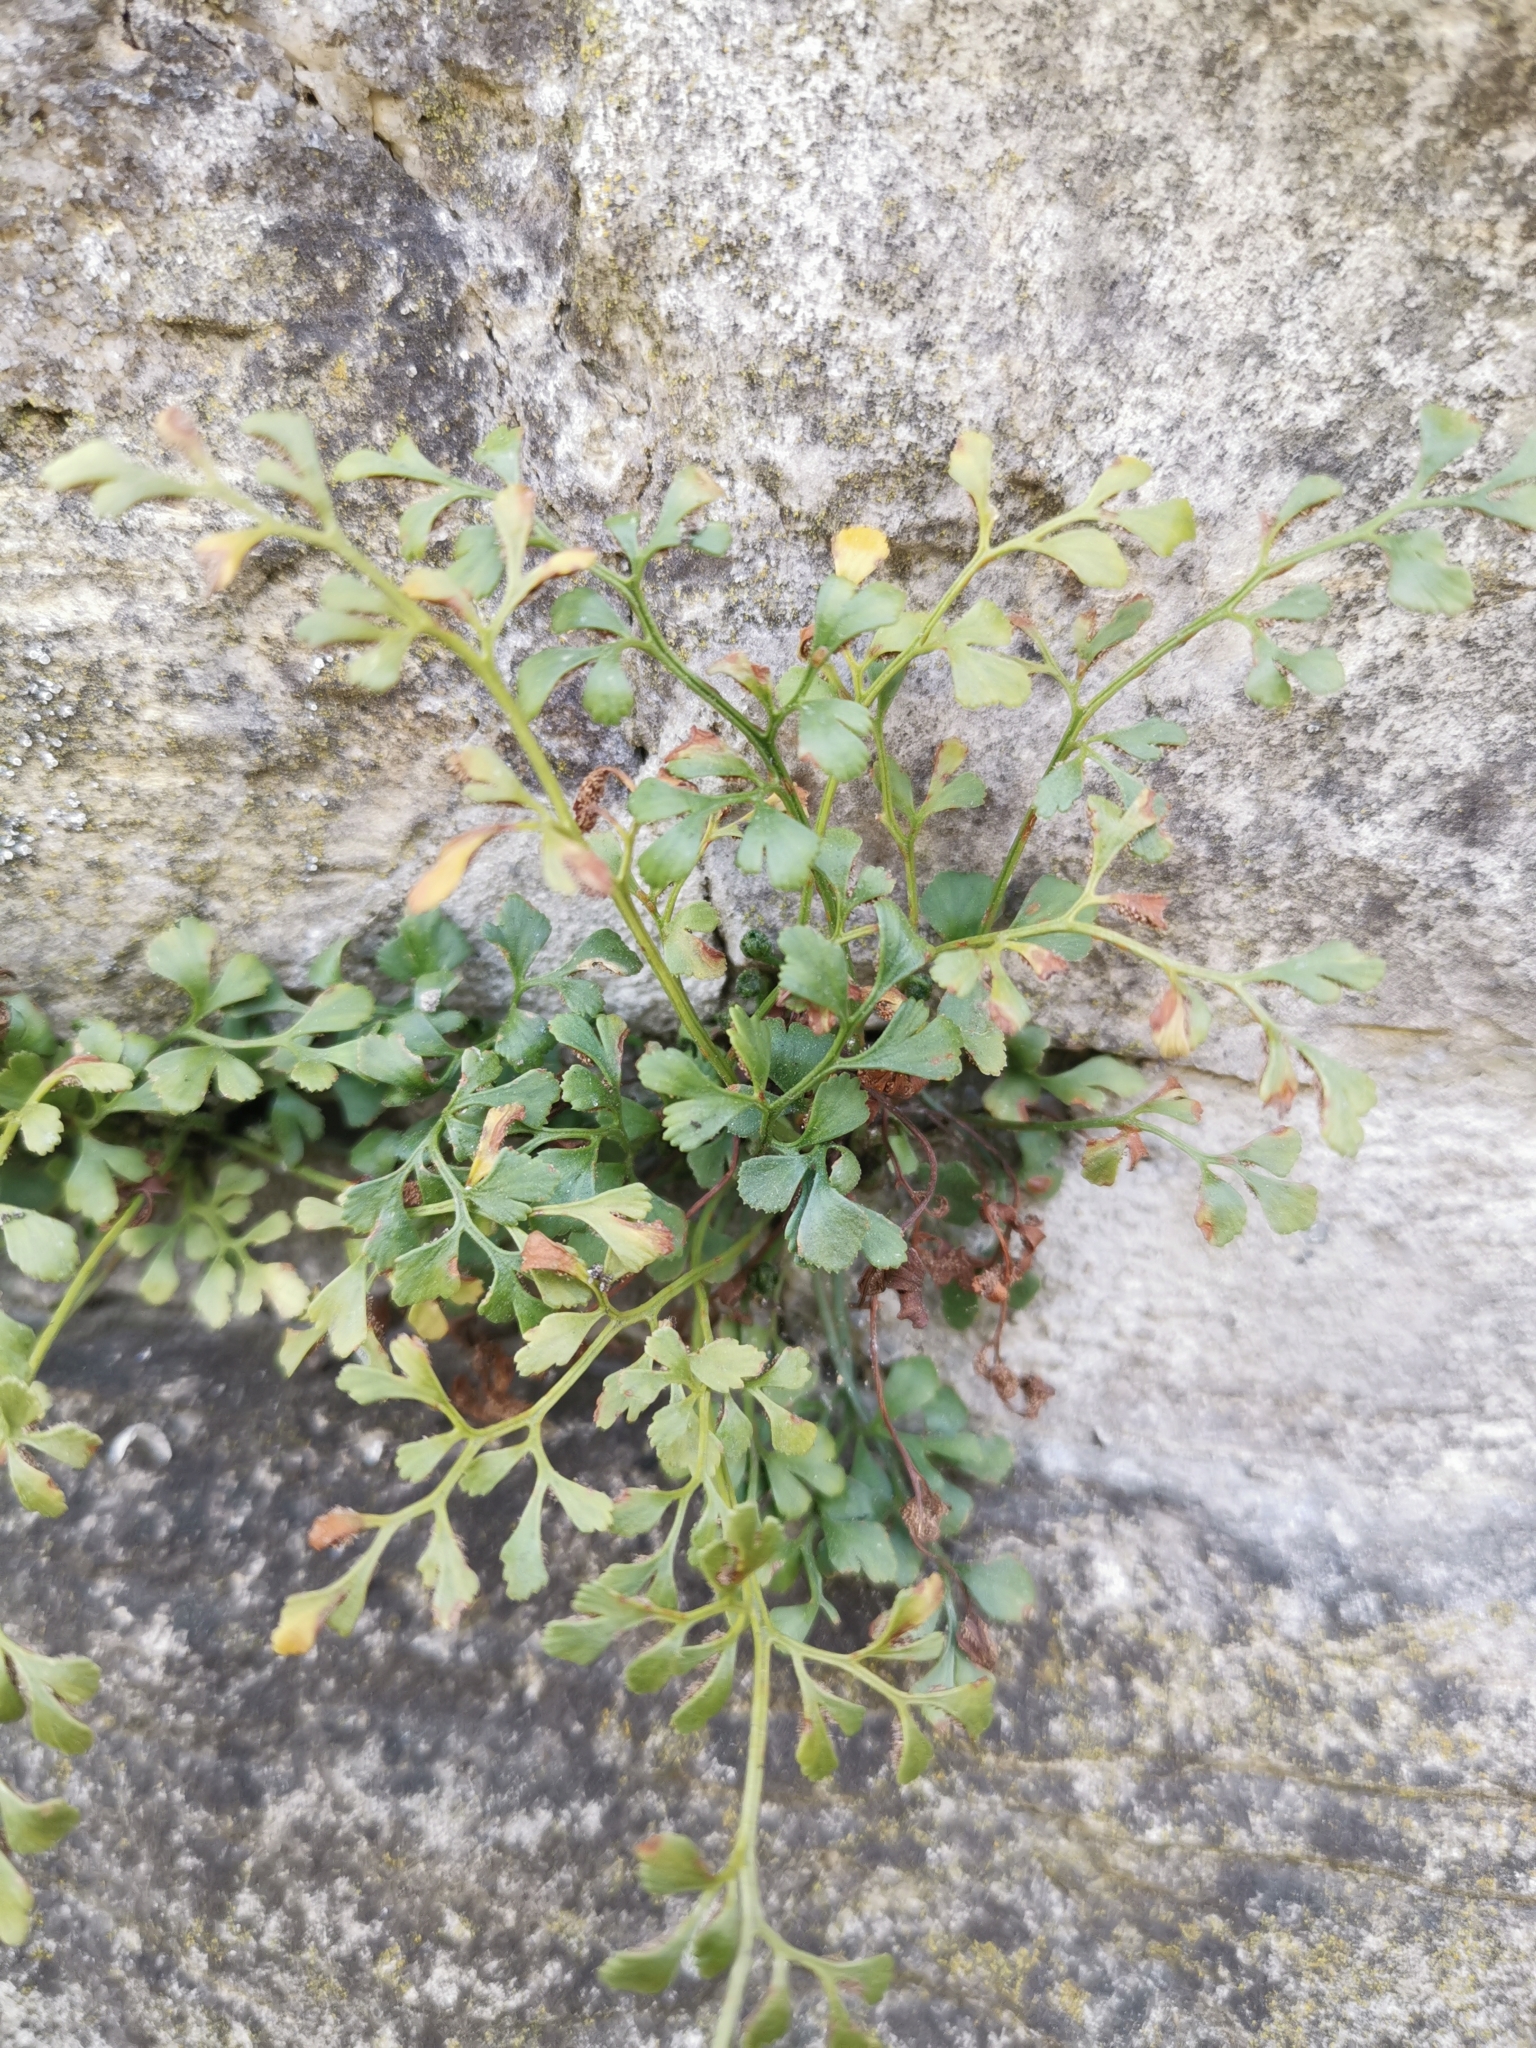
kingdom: Plantae
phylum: Tracheophyta
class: Polypodiopsida
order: Polypodiales
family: Aspleniaceae
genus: Asplenium
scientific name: Asplenium ruta-muraria
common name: Wall-rue
